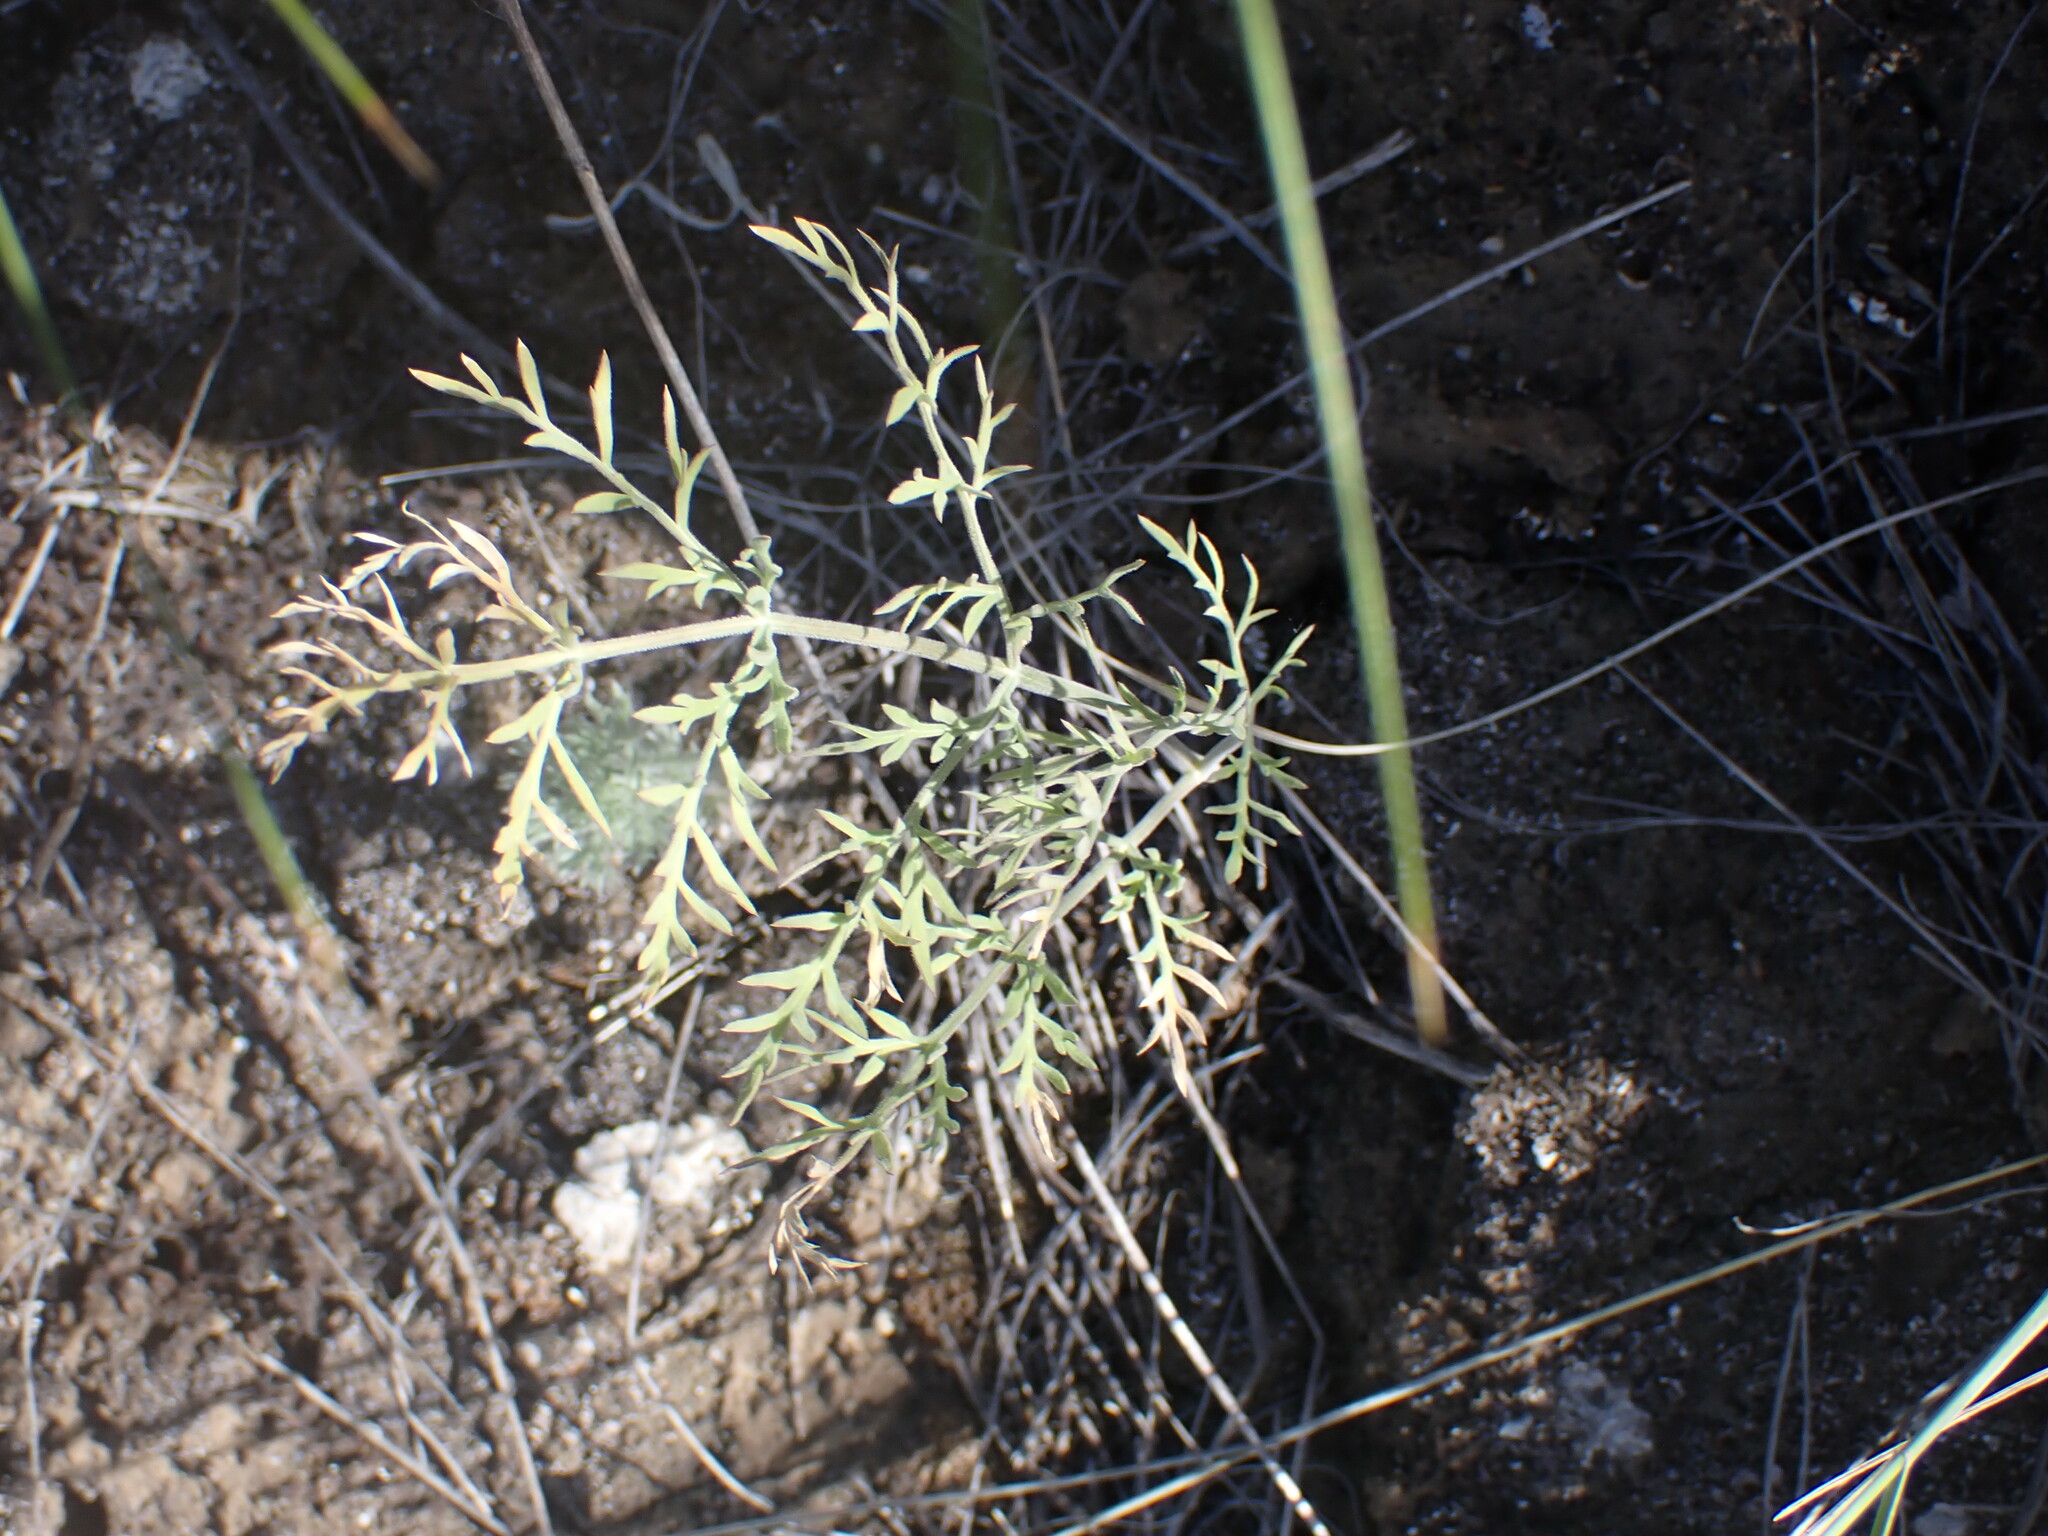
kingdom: Plantae
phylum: Tracheophyta
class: Magnoliopsida
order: Apiales
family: Apiaceae
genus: Lomatium
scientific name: Lomatium macrocarpum
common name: Big-seed biscuitroot
